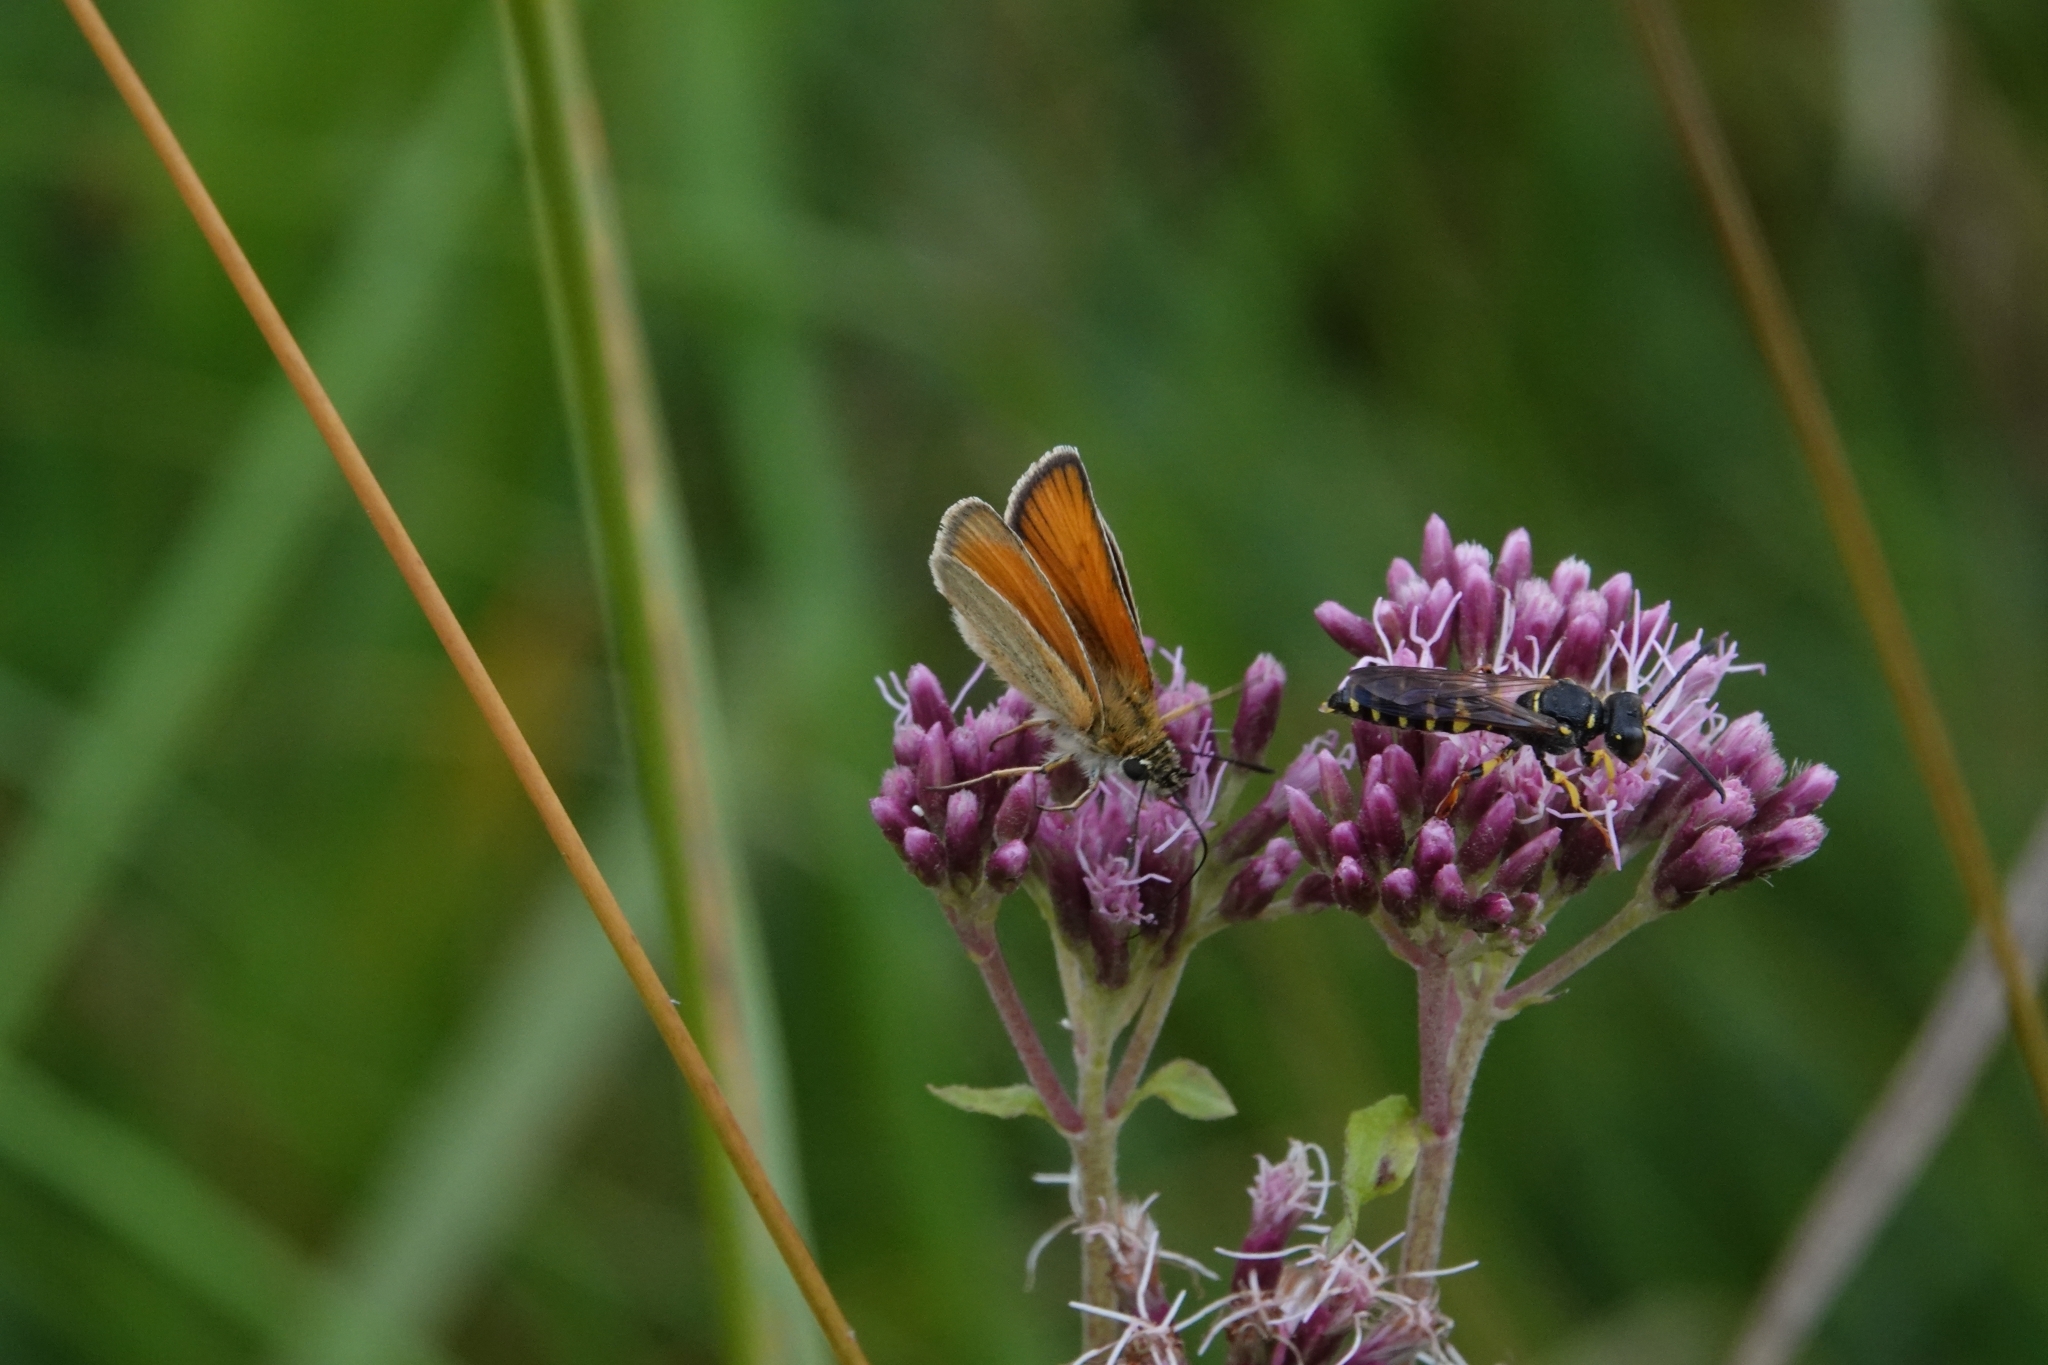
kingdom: Animalia
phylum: Arthropoda
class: Insecta
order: Lepidoptera
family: Hesperiidae
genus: Thymelicus
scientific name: Thymelicus lineola
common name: Essex skipper
